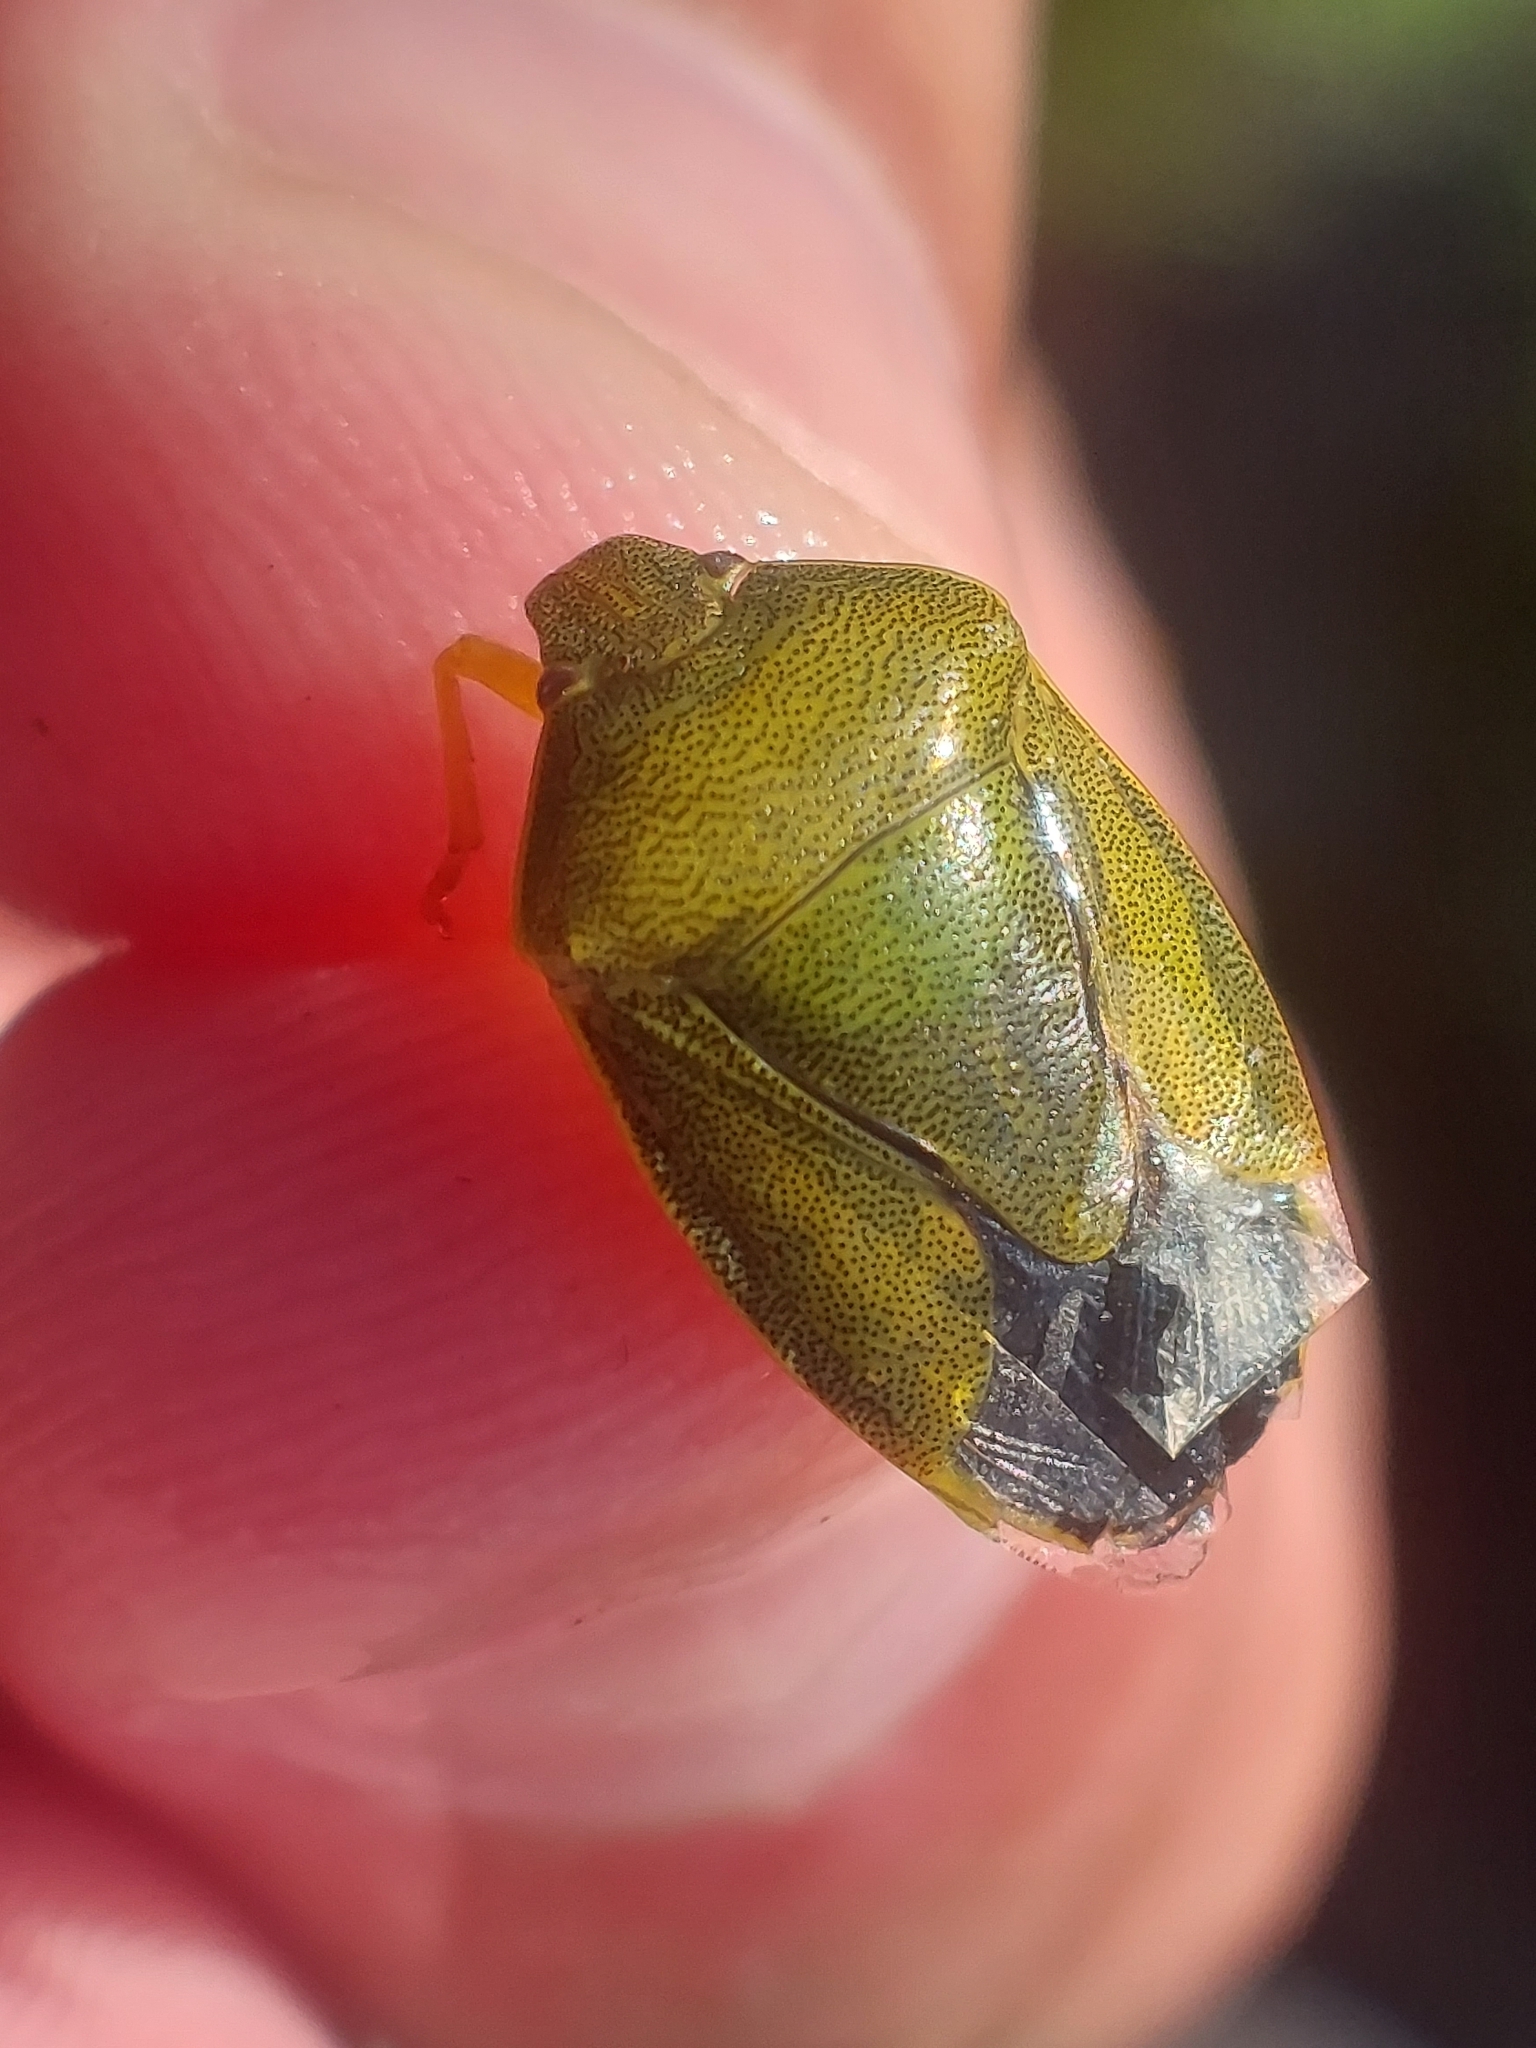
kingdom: Animalia
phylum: Arthropoda
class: Insecta
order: Hemiptera
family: Pentatomidae
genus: Piezodorus
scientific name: Piezodorus lituratus
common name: Stink bug
